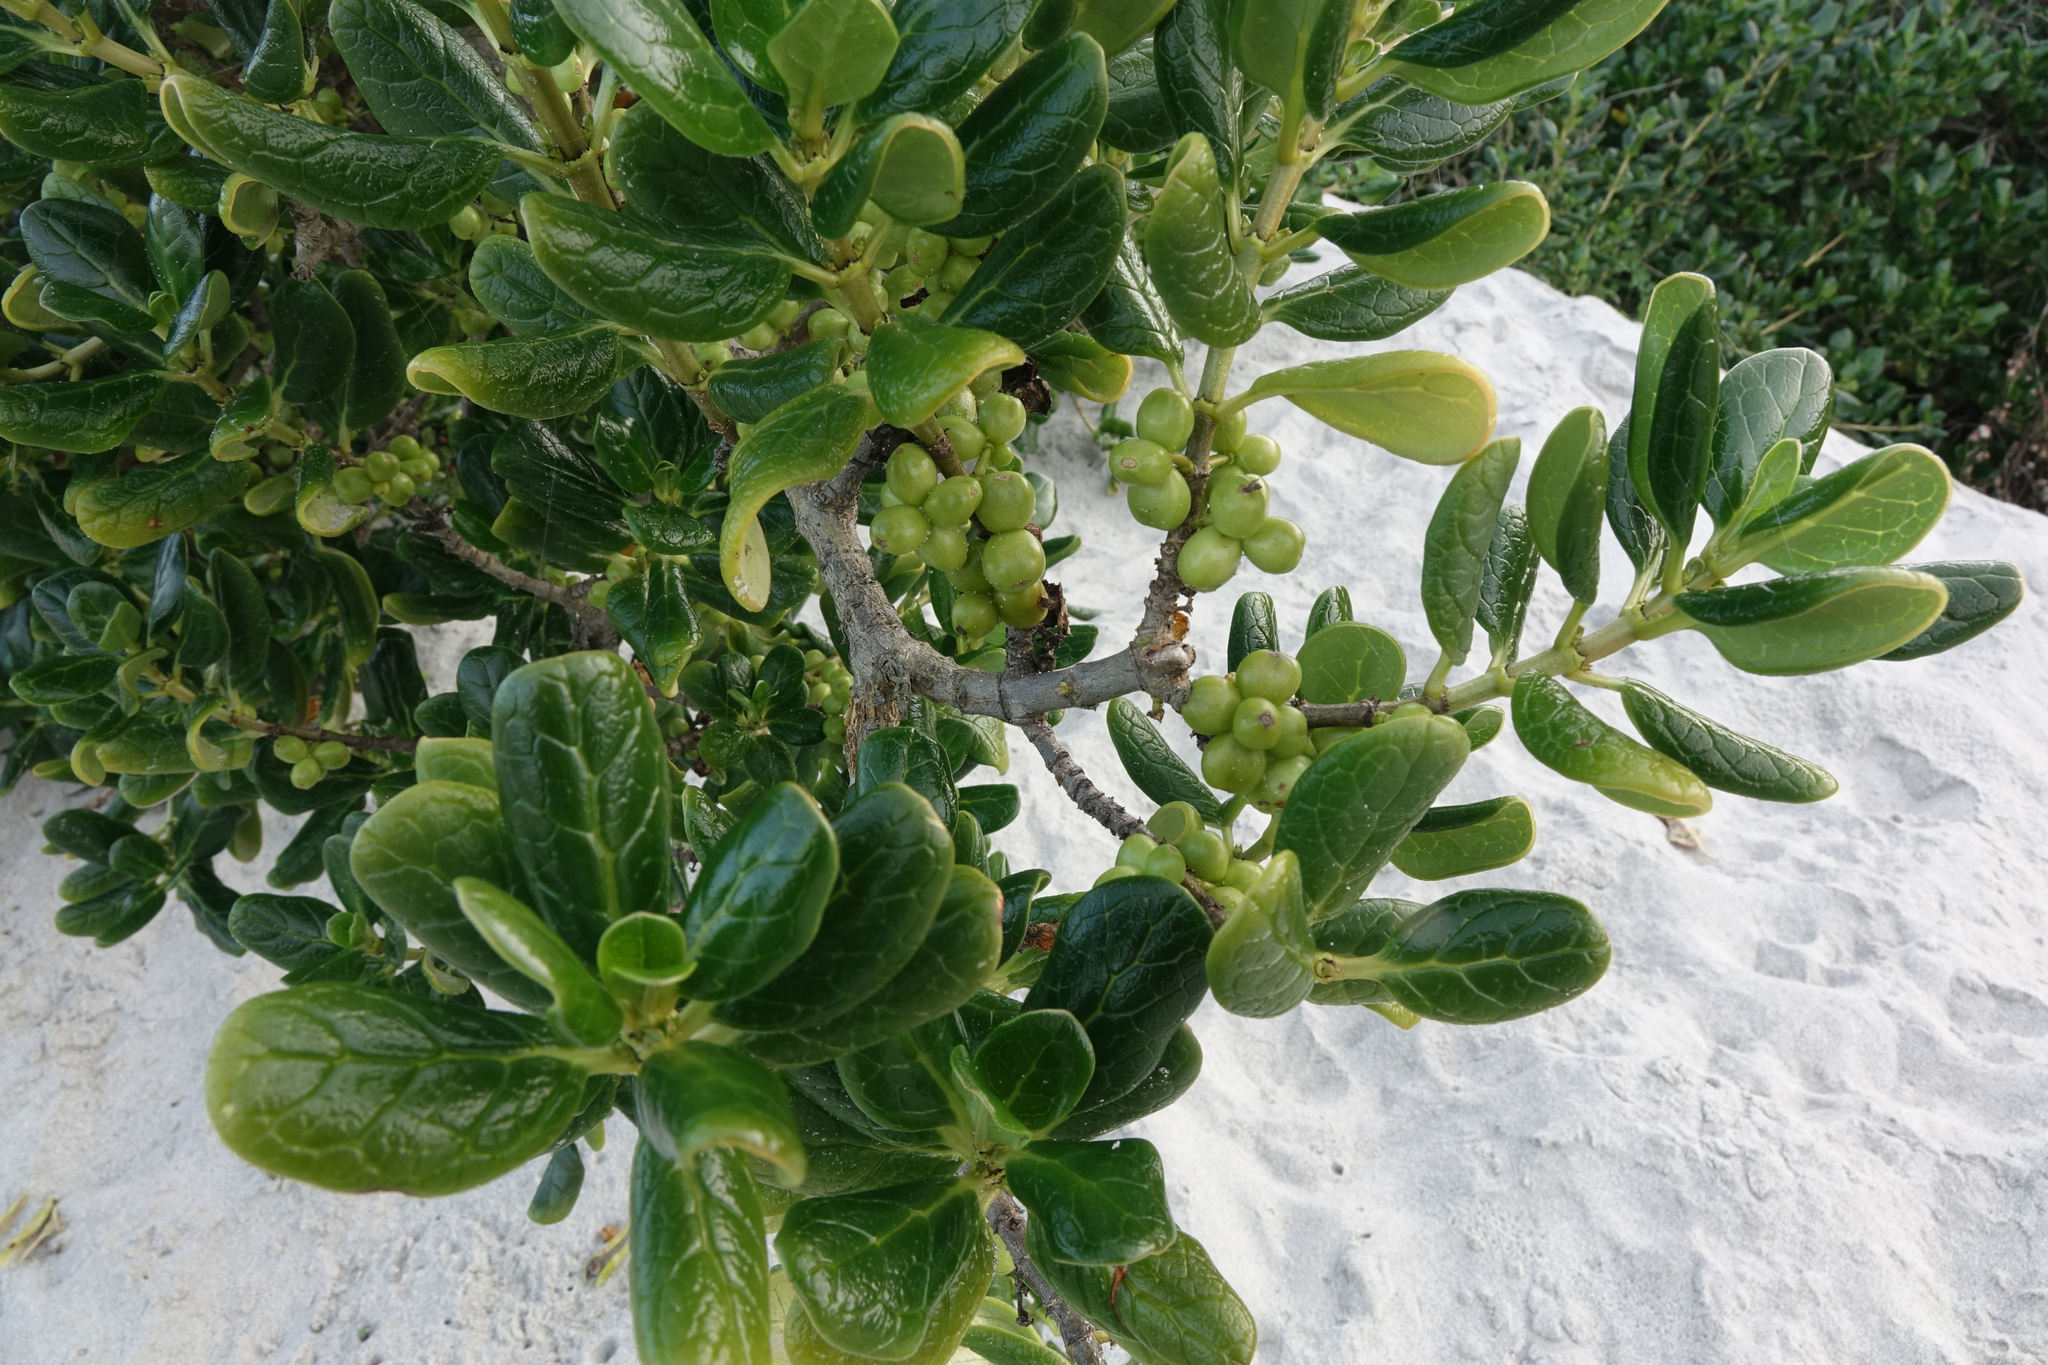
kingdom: Plantae
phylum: Tracheophyta
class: Magnoliopsida
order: Gentianales
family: Rubiaceae
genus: Coprosma
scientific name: Coprosma repens
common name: Tree bedstraw
